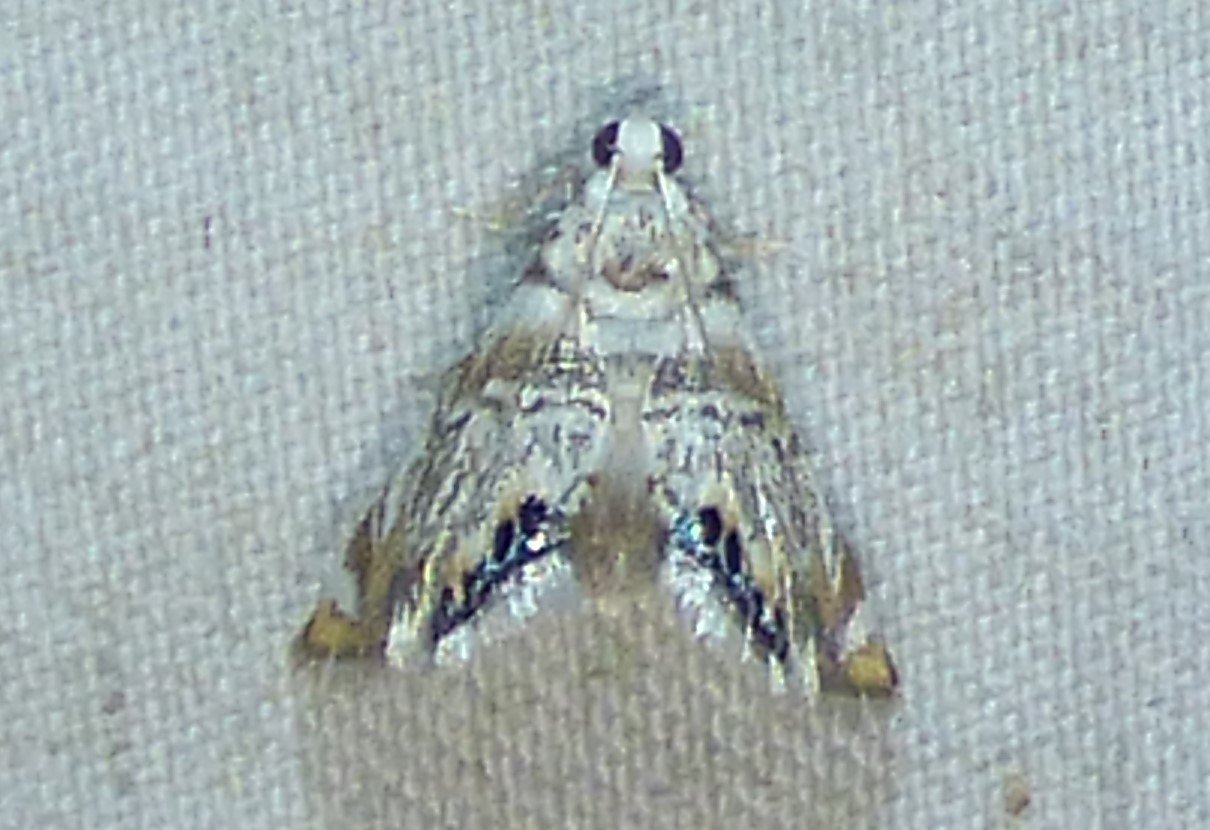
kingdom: Animalia
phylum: Arthropoda
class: Insecta
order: Lepidoptera
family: Crambidae
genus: Eoparargyractis
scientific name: Eoparargyractis irroratalis
